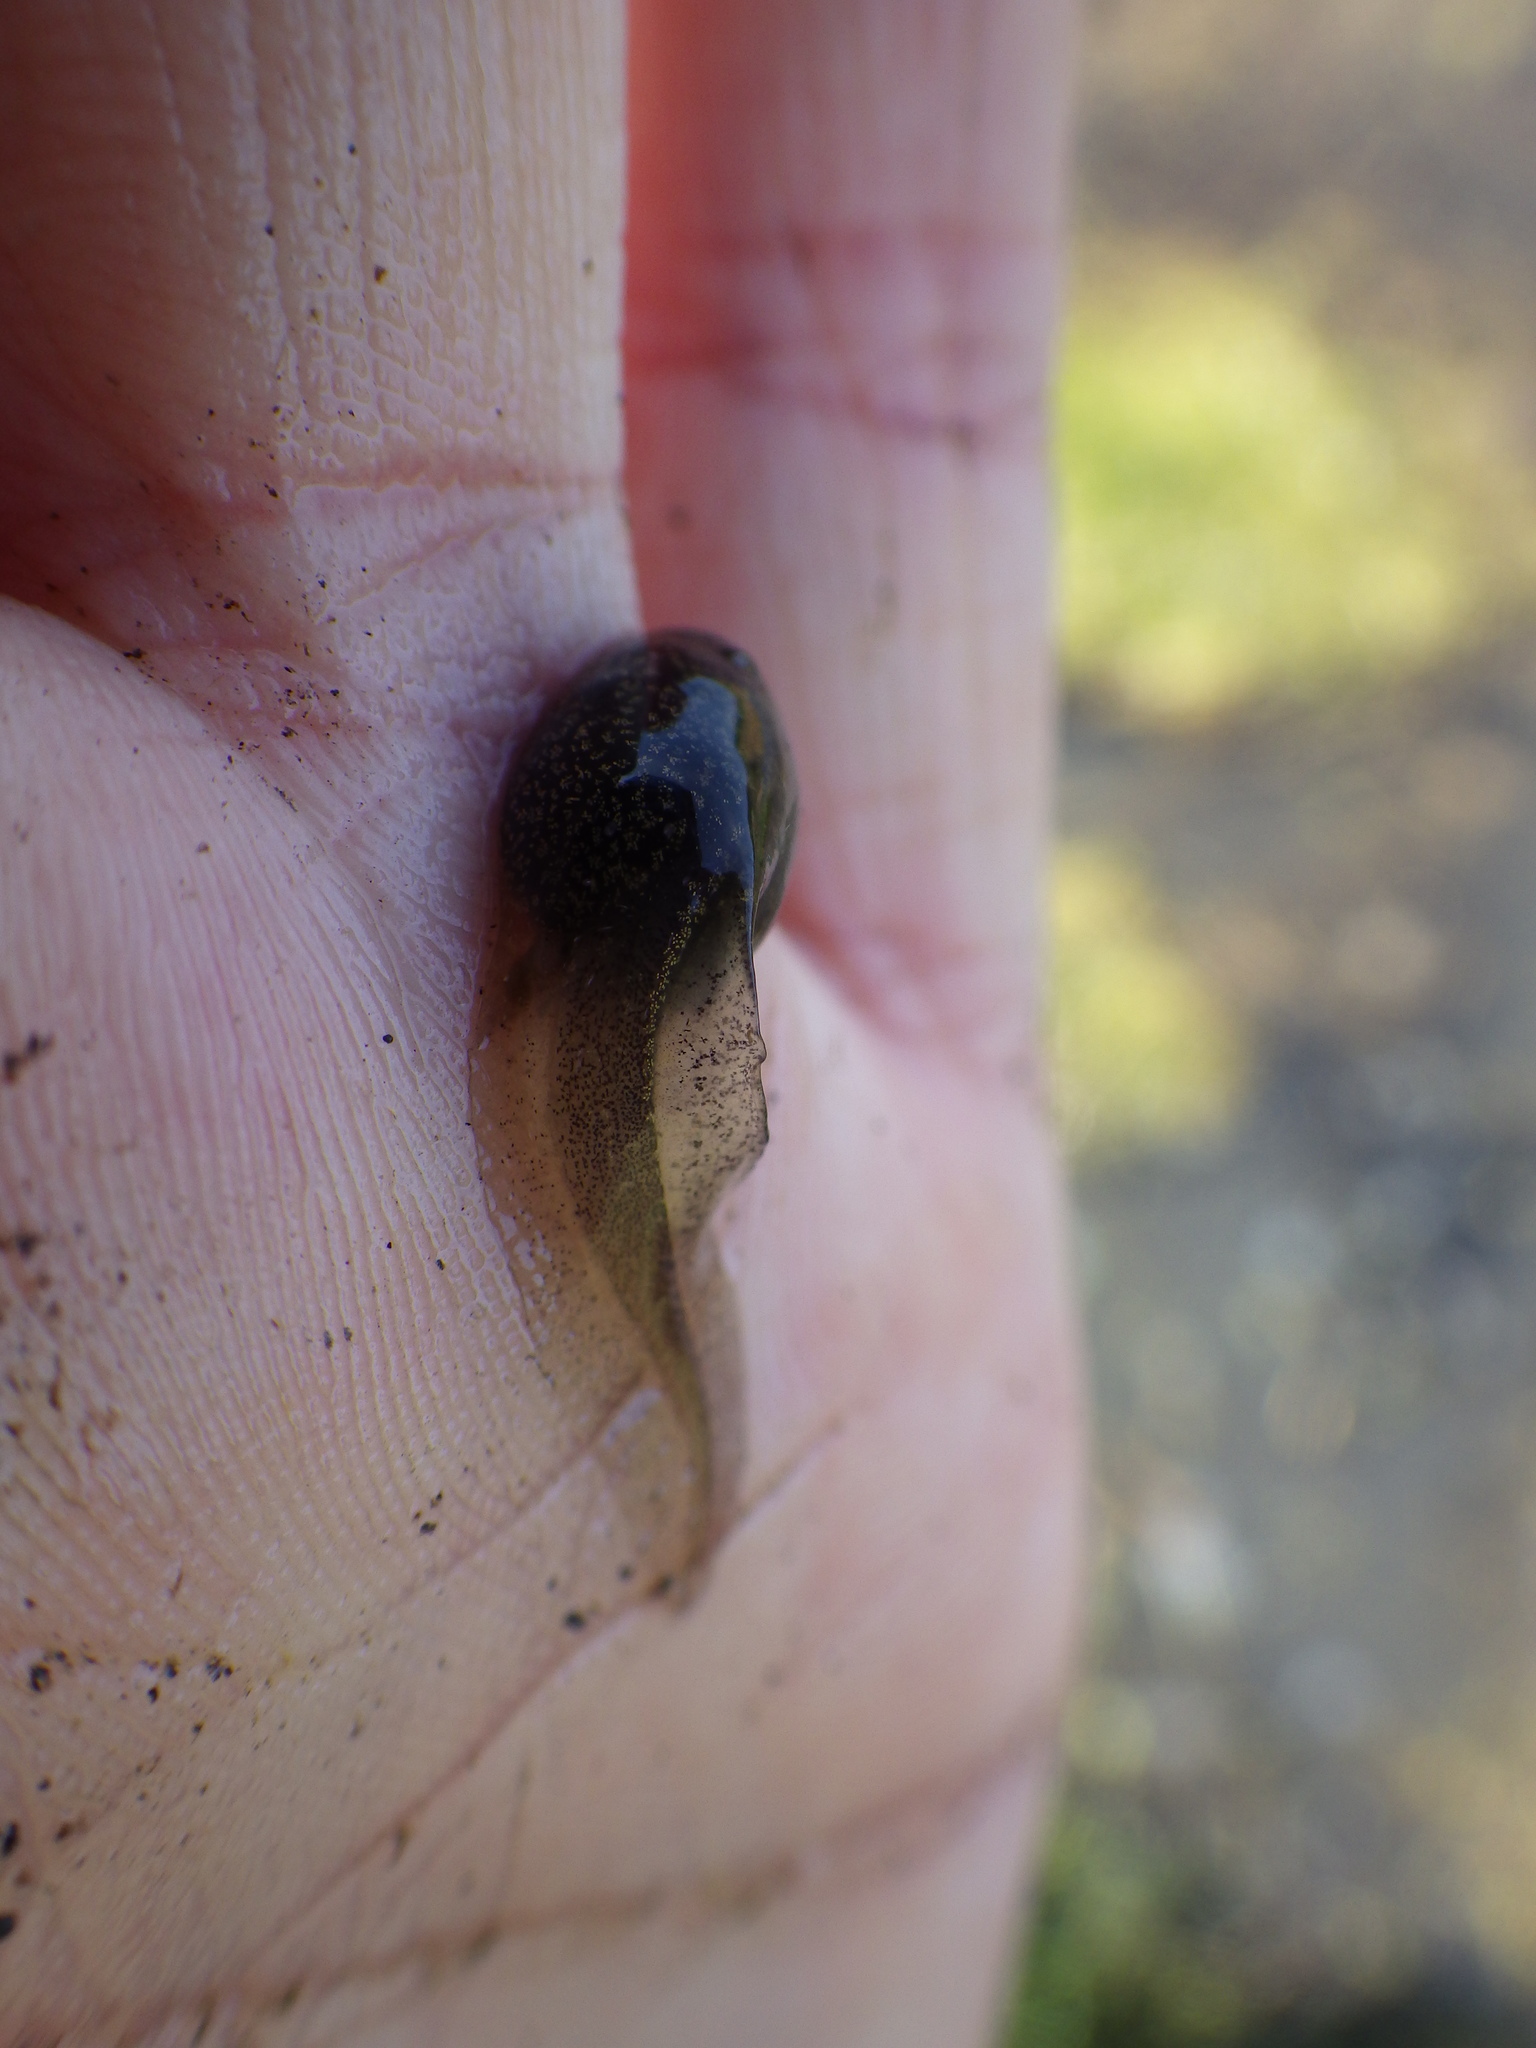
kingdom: Animalia
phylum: Chordata
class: Amphibia
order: Anura
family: Ranidae
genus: Rana
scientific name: Rana temporaria
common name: Common frog
